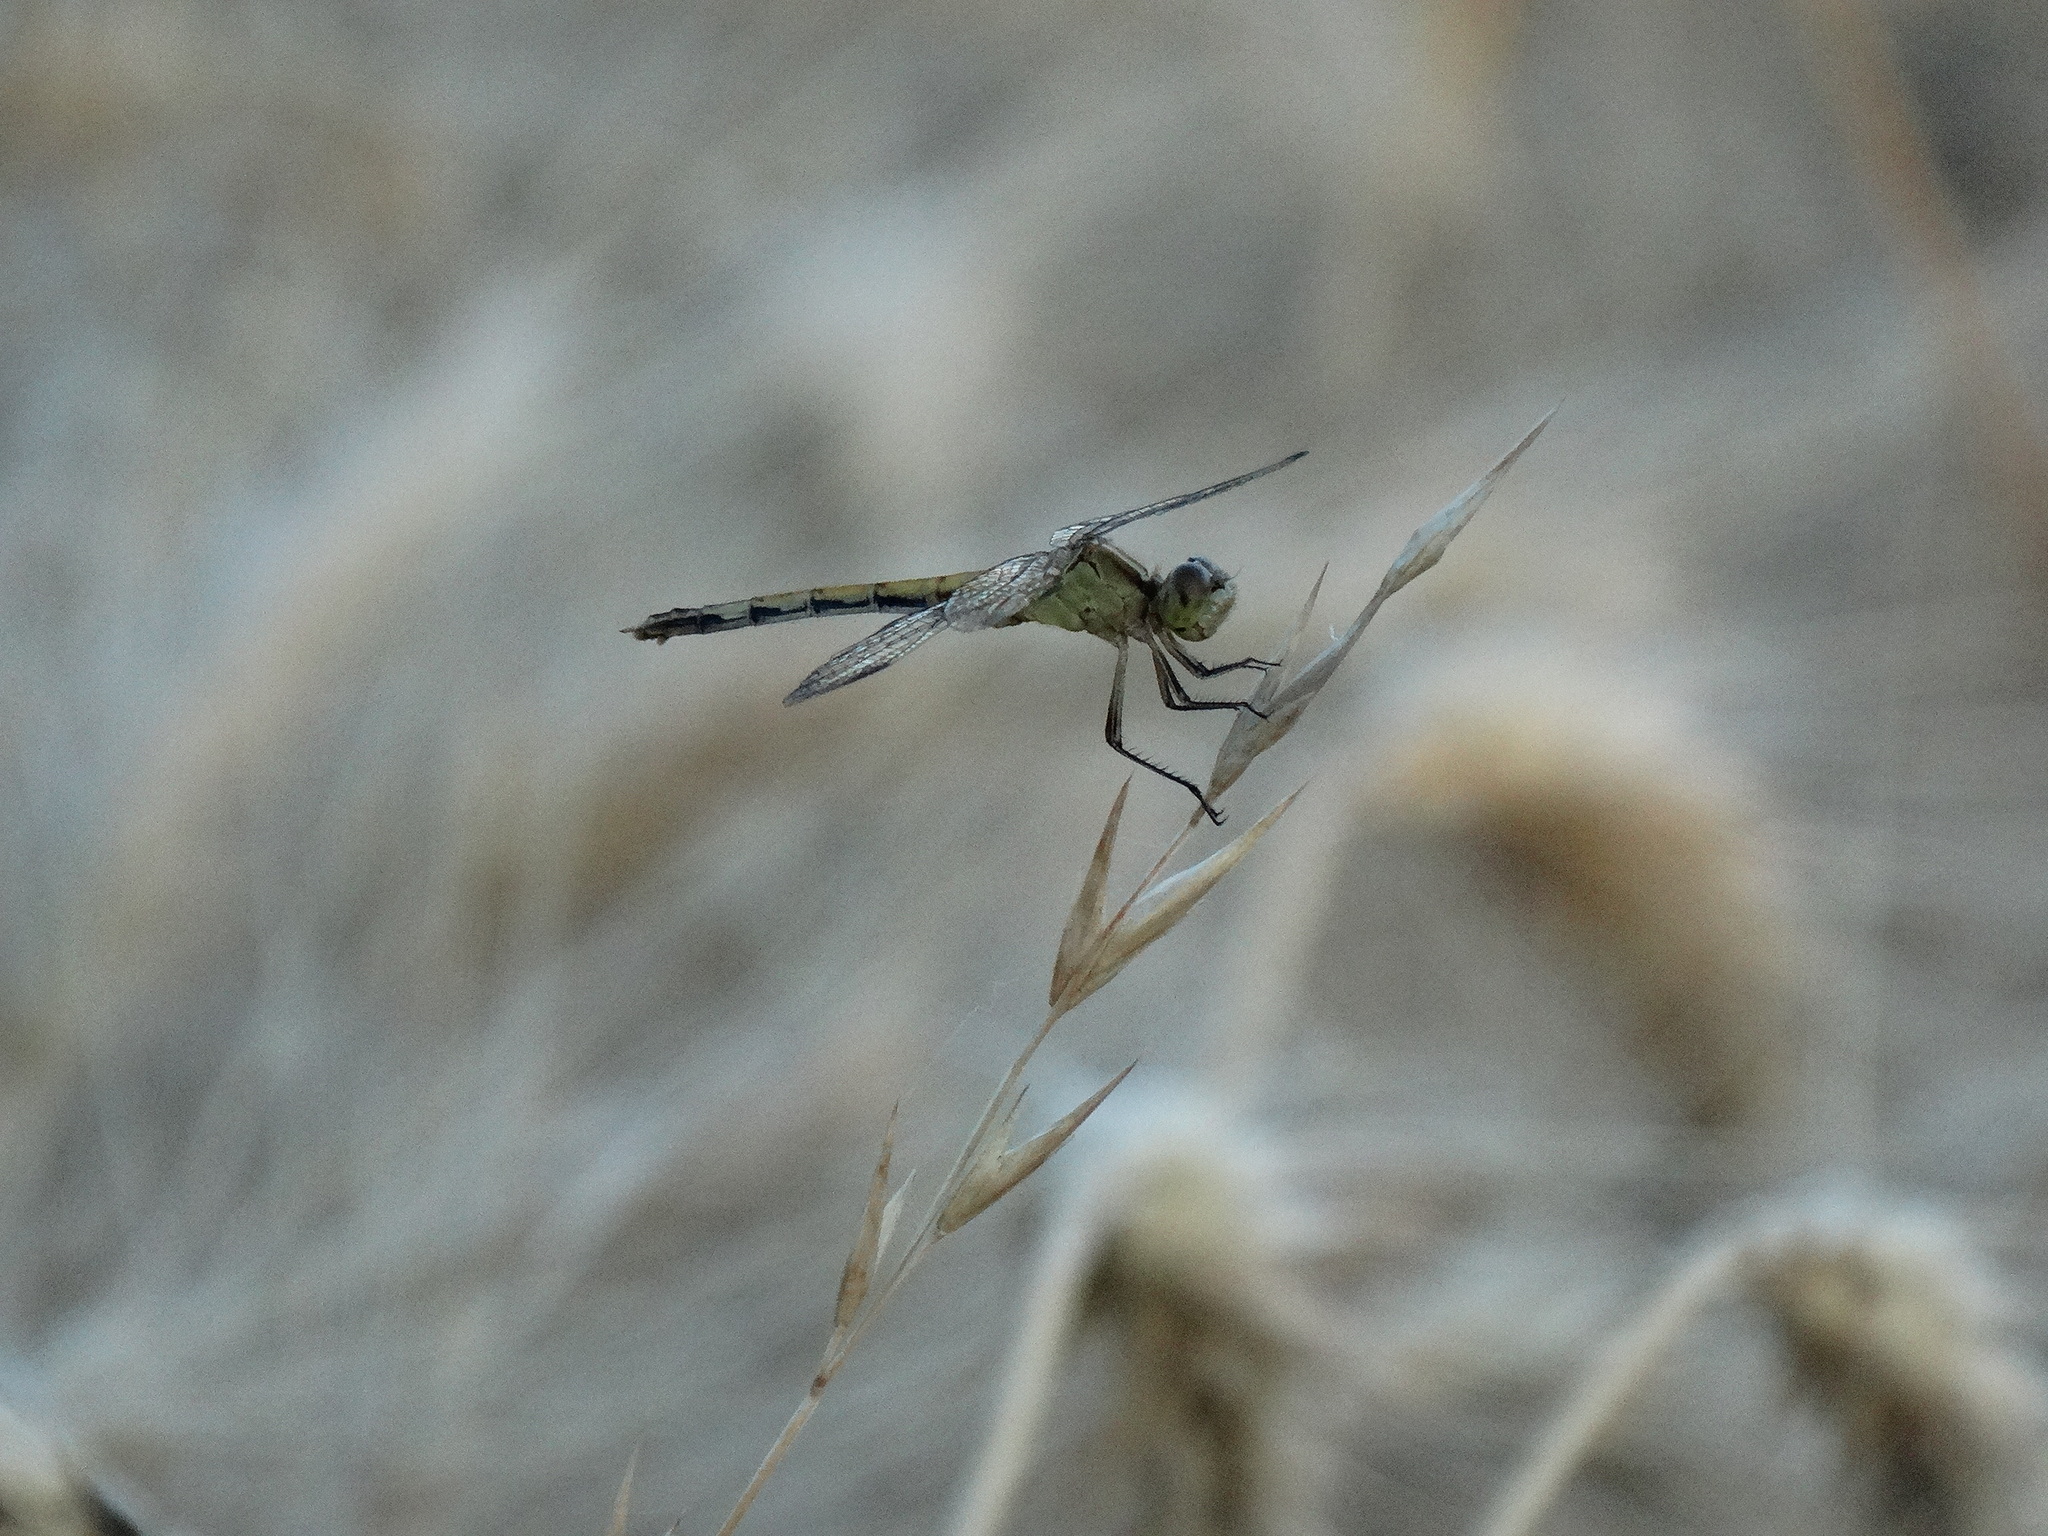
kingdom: Animalia
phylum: Arthropoda
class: Insecta
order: Odonata
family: Libellulidae
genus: Erythrodiplax
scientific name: Erythrodiplax nigricans
